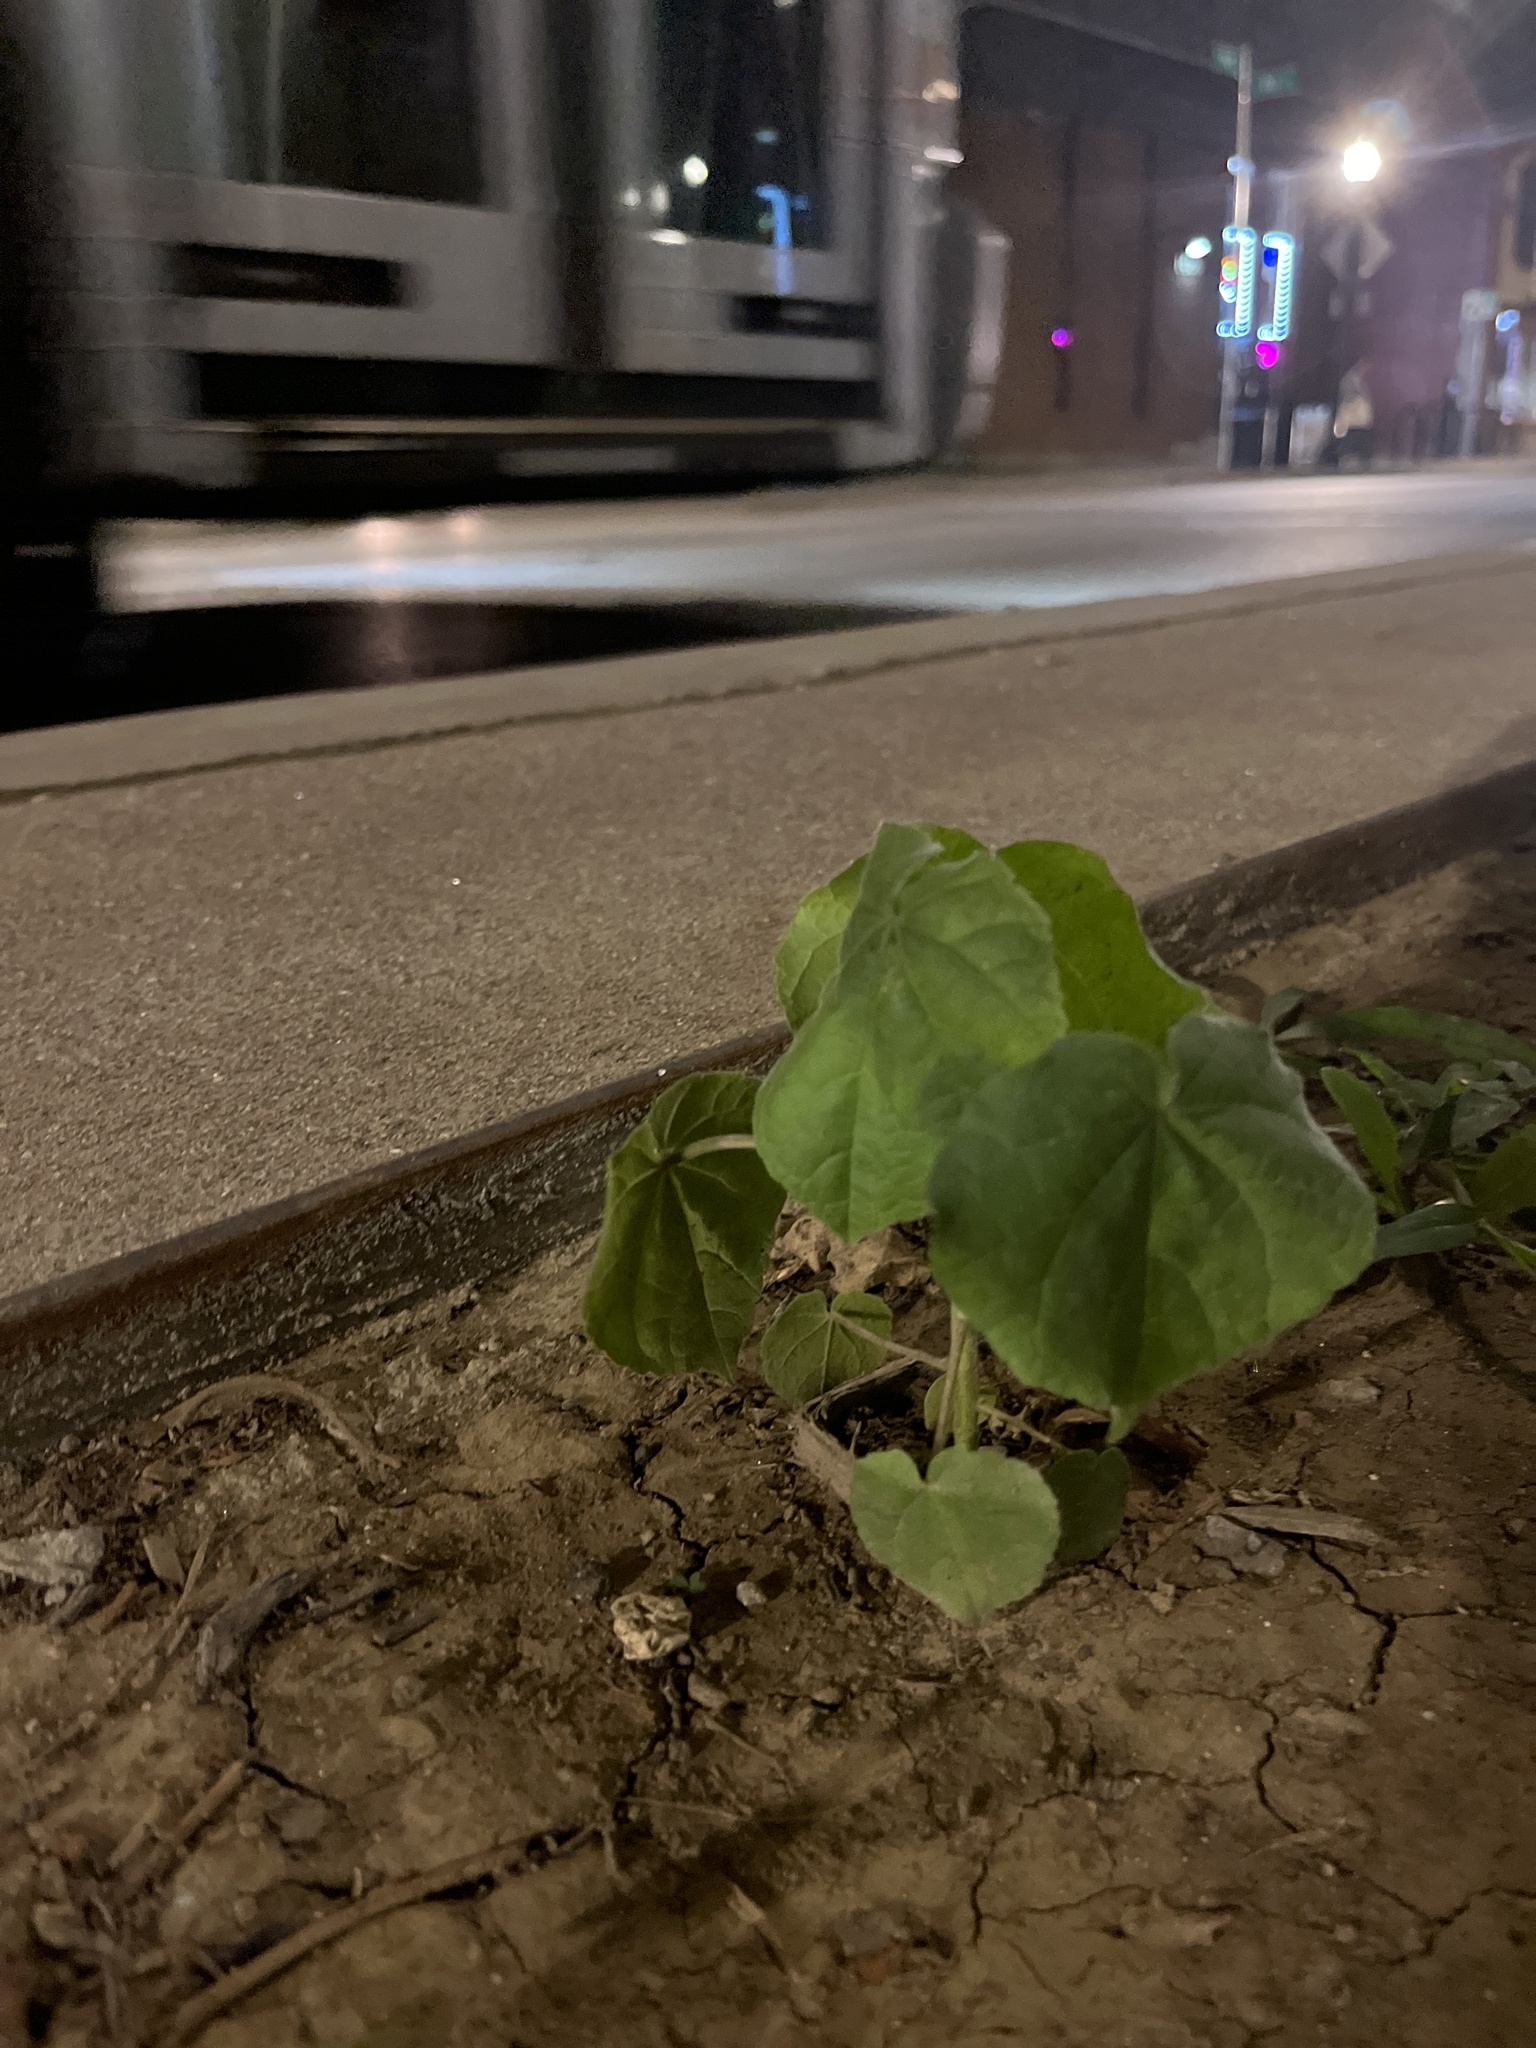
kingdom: Plantae
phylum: Tracheophyta
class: Magnoliopsida
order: Malvales
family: Malvaceae
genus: Abutilon
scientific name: Abutilon theophrasti
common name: Velvetleaf
